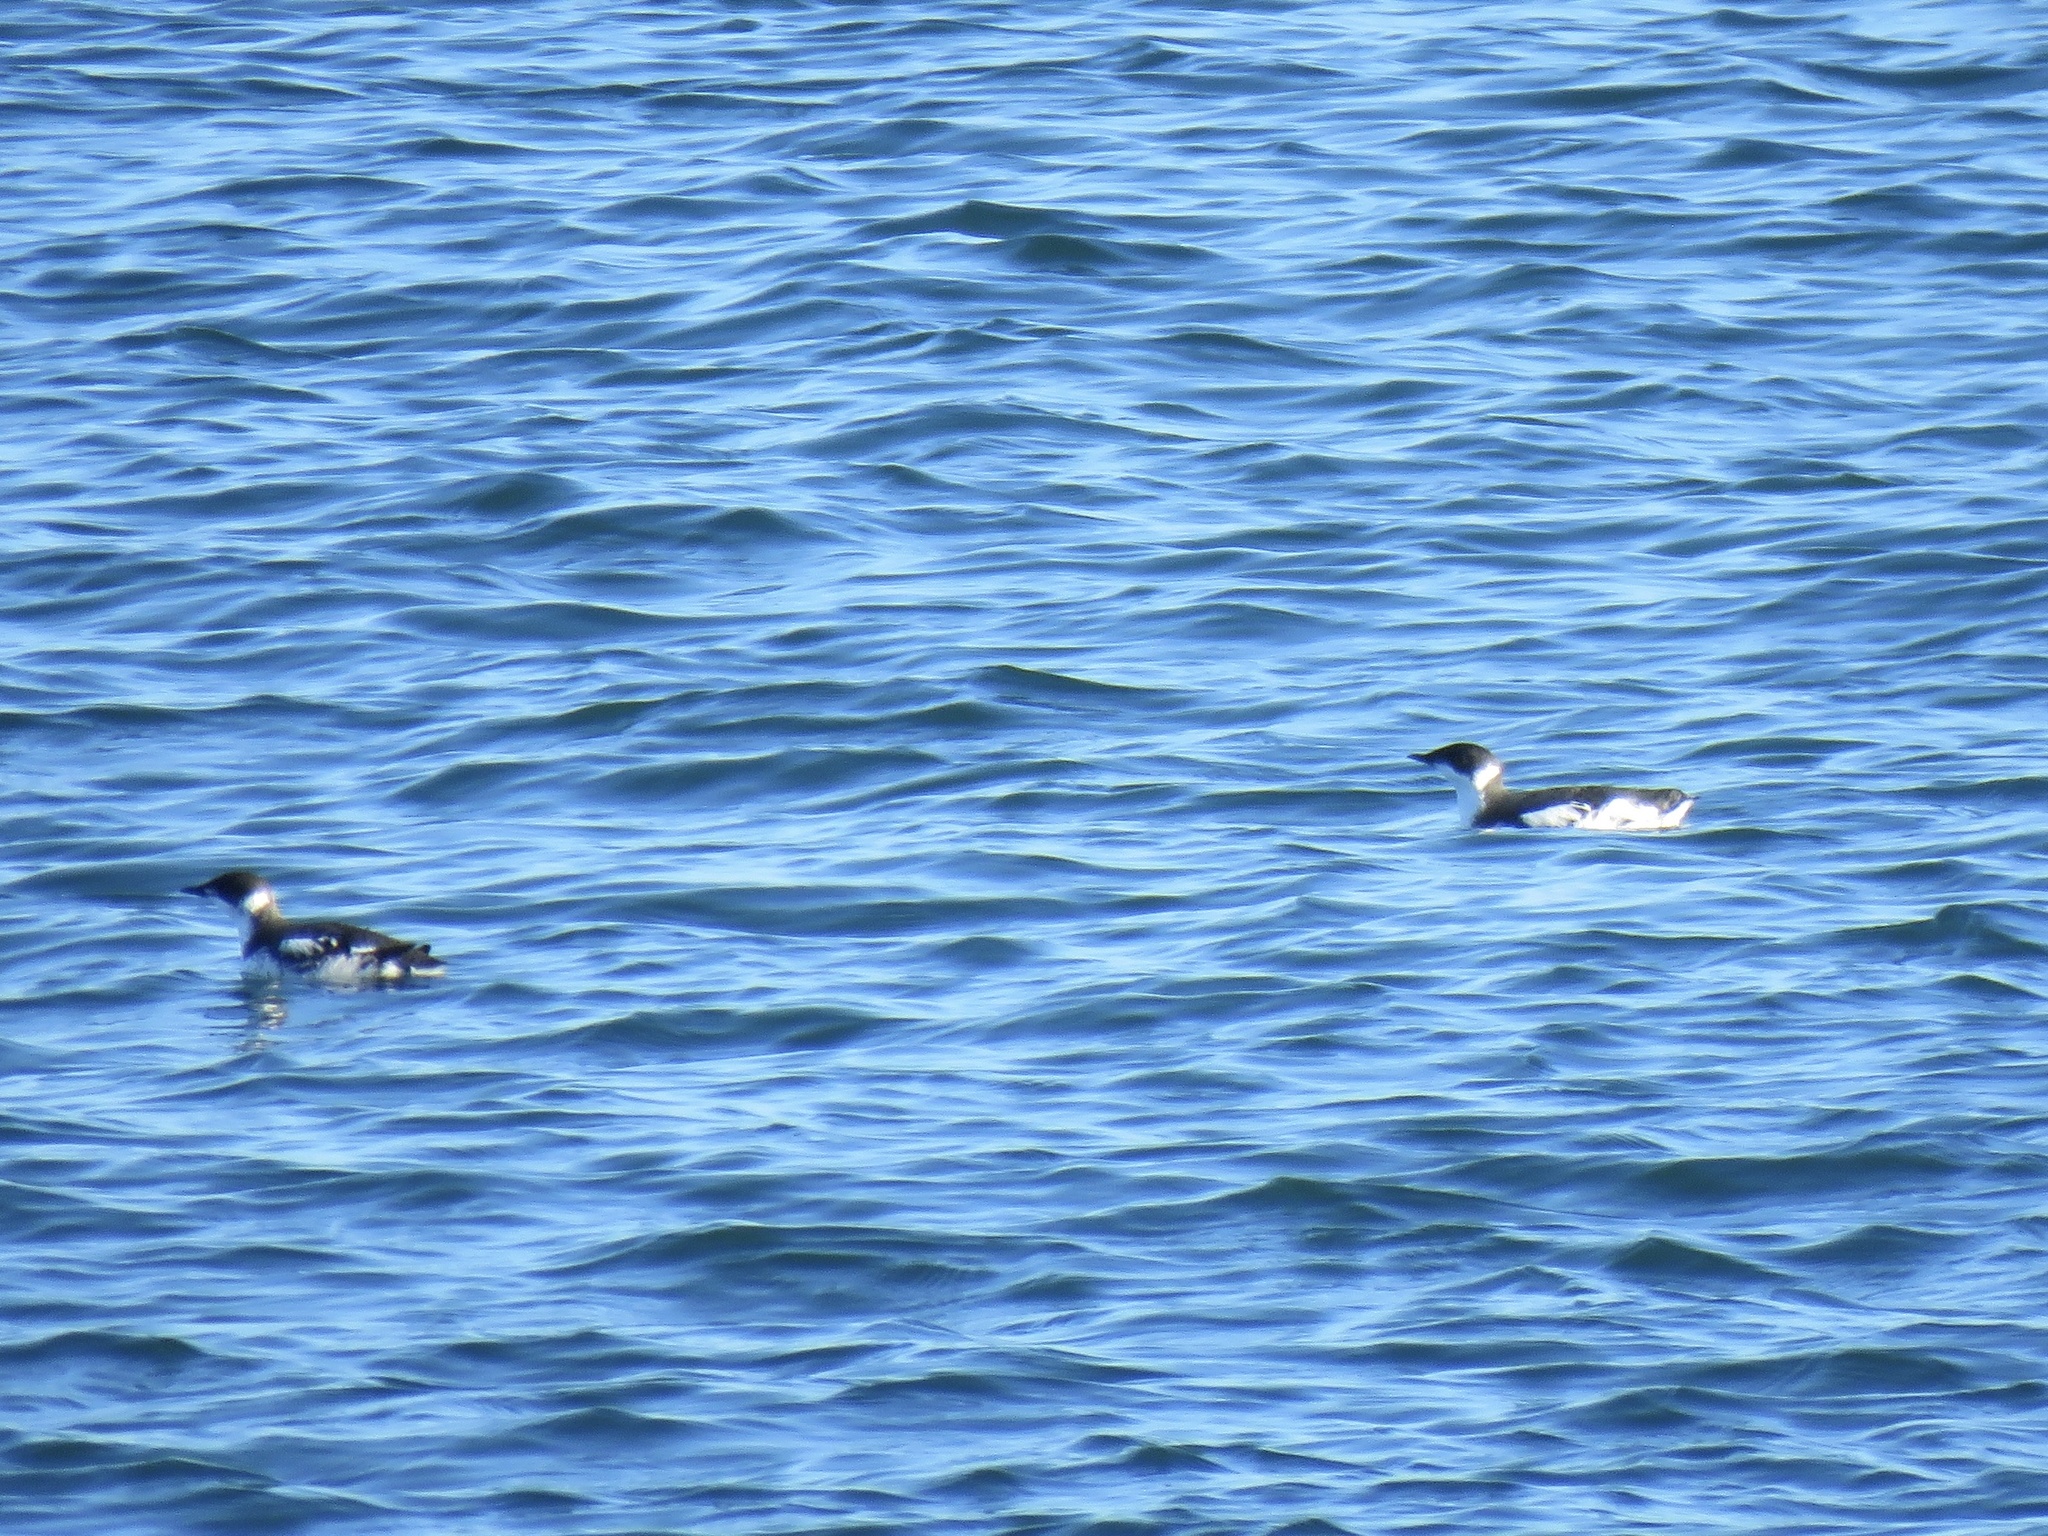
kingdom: Animalia
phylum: Chordata
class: Aves
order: Charadriiformes
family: Alcidae
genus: Brachyramphus
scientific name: Brachyramphus marmoratus
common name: Marbled murrelet
